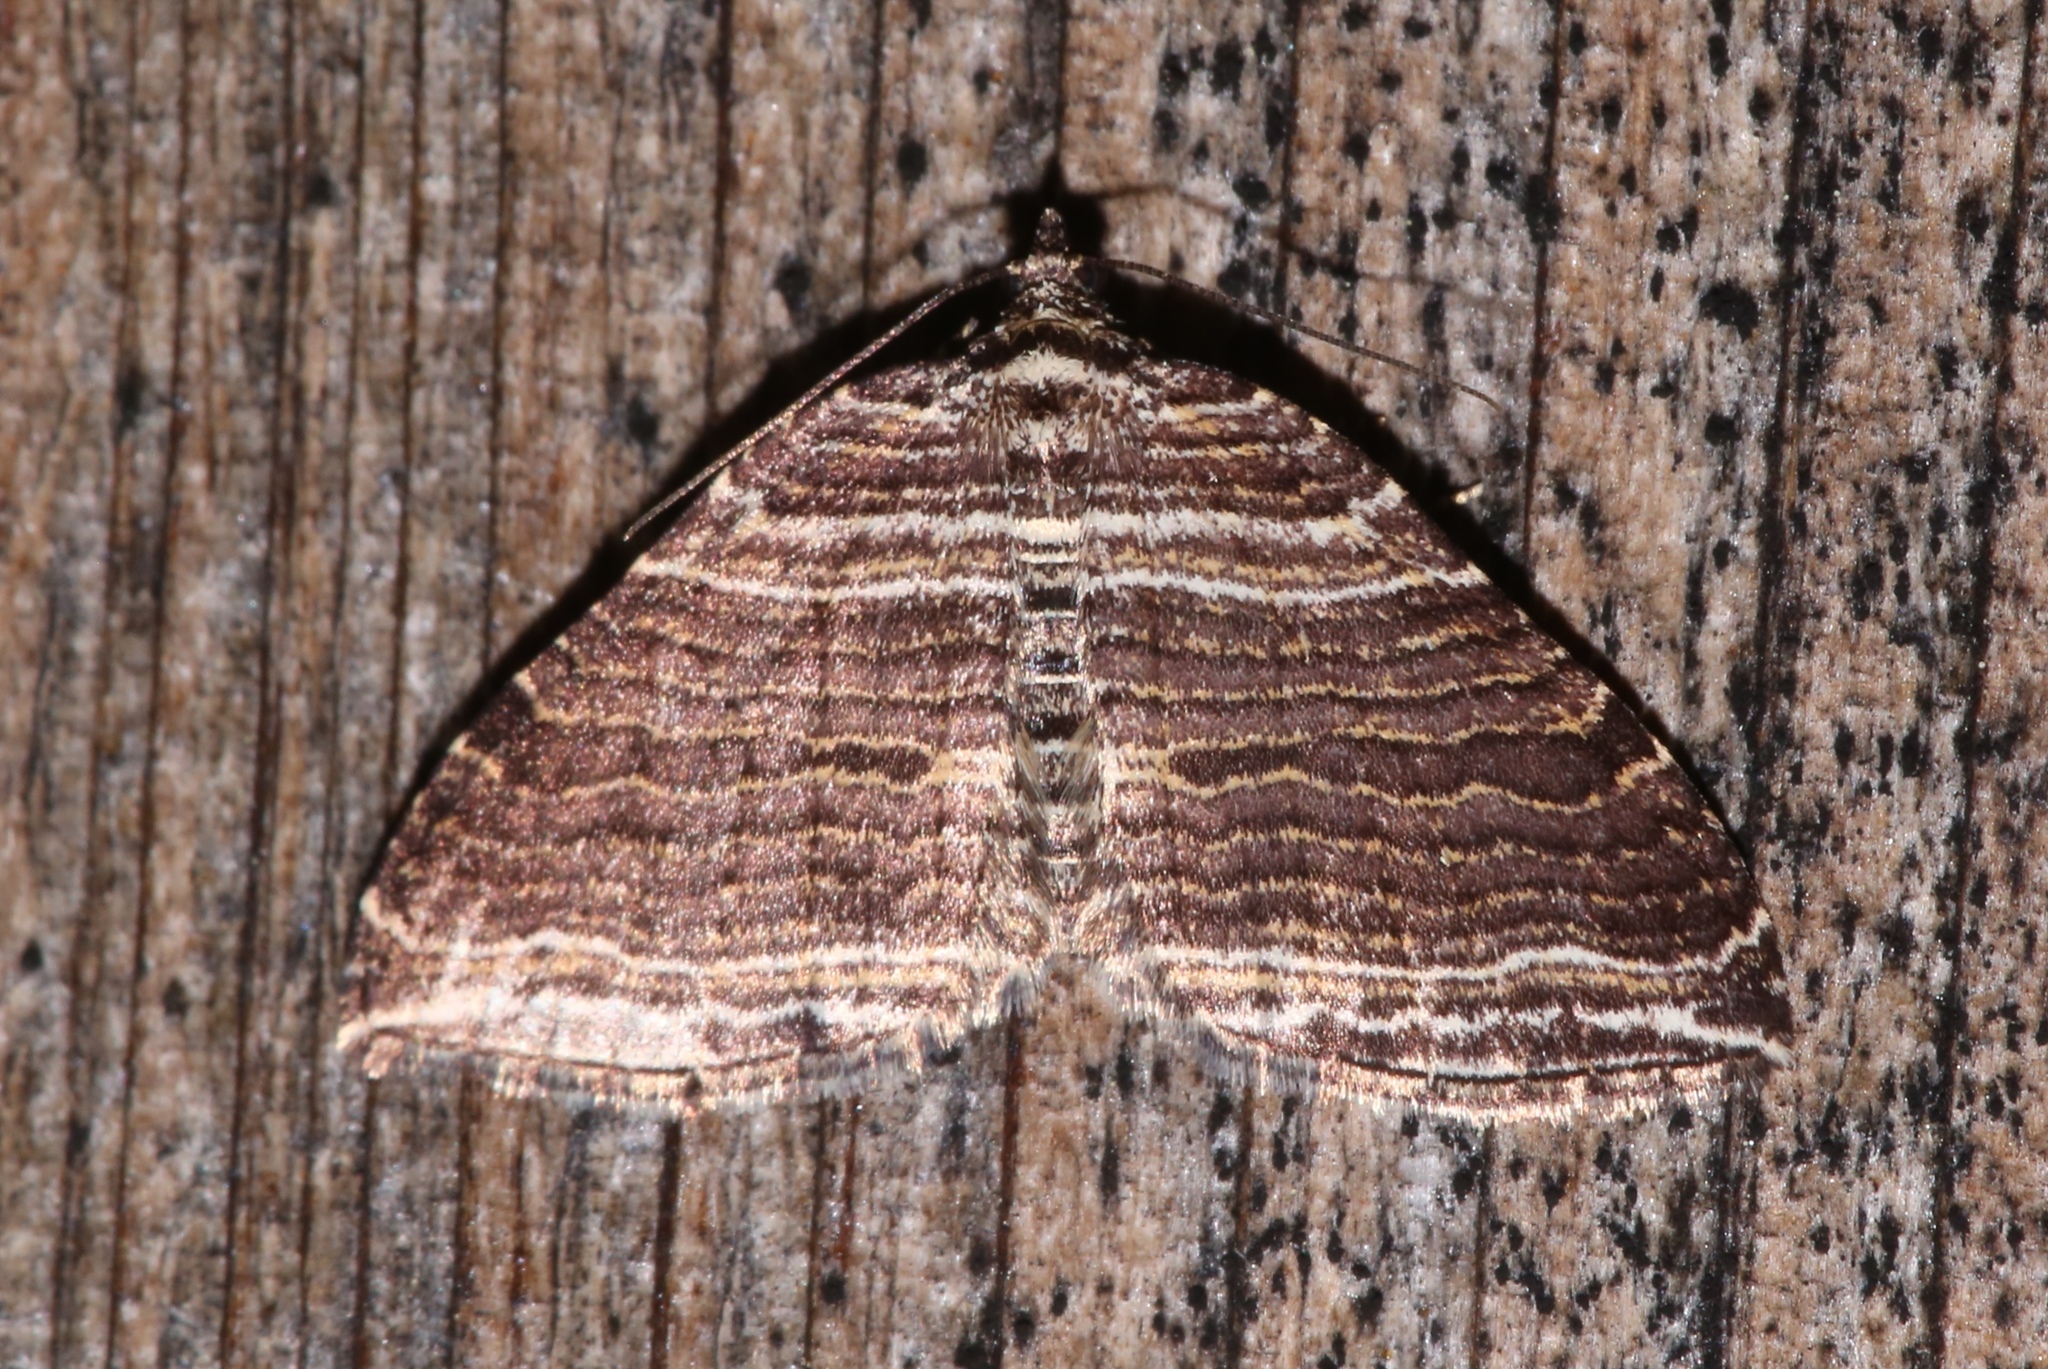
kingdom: Animalia
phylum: Arthropoda
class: Insecta
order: Lepidoptera
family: Geometridae
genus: Anticlea
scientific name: Anticlea multiferata
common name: Many-lined carpet
